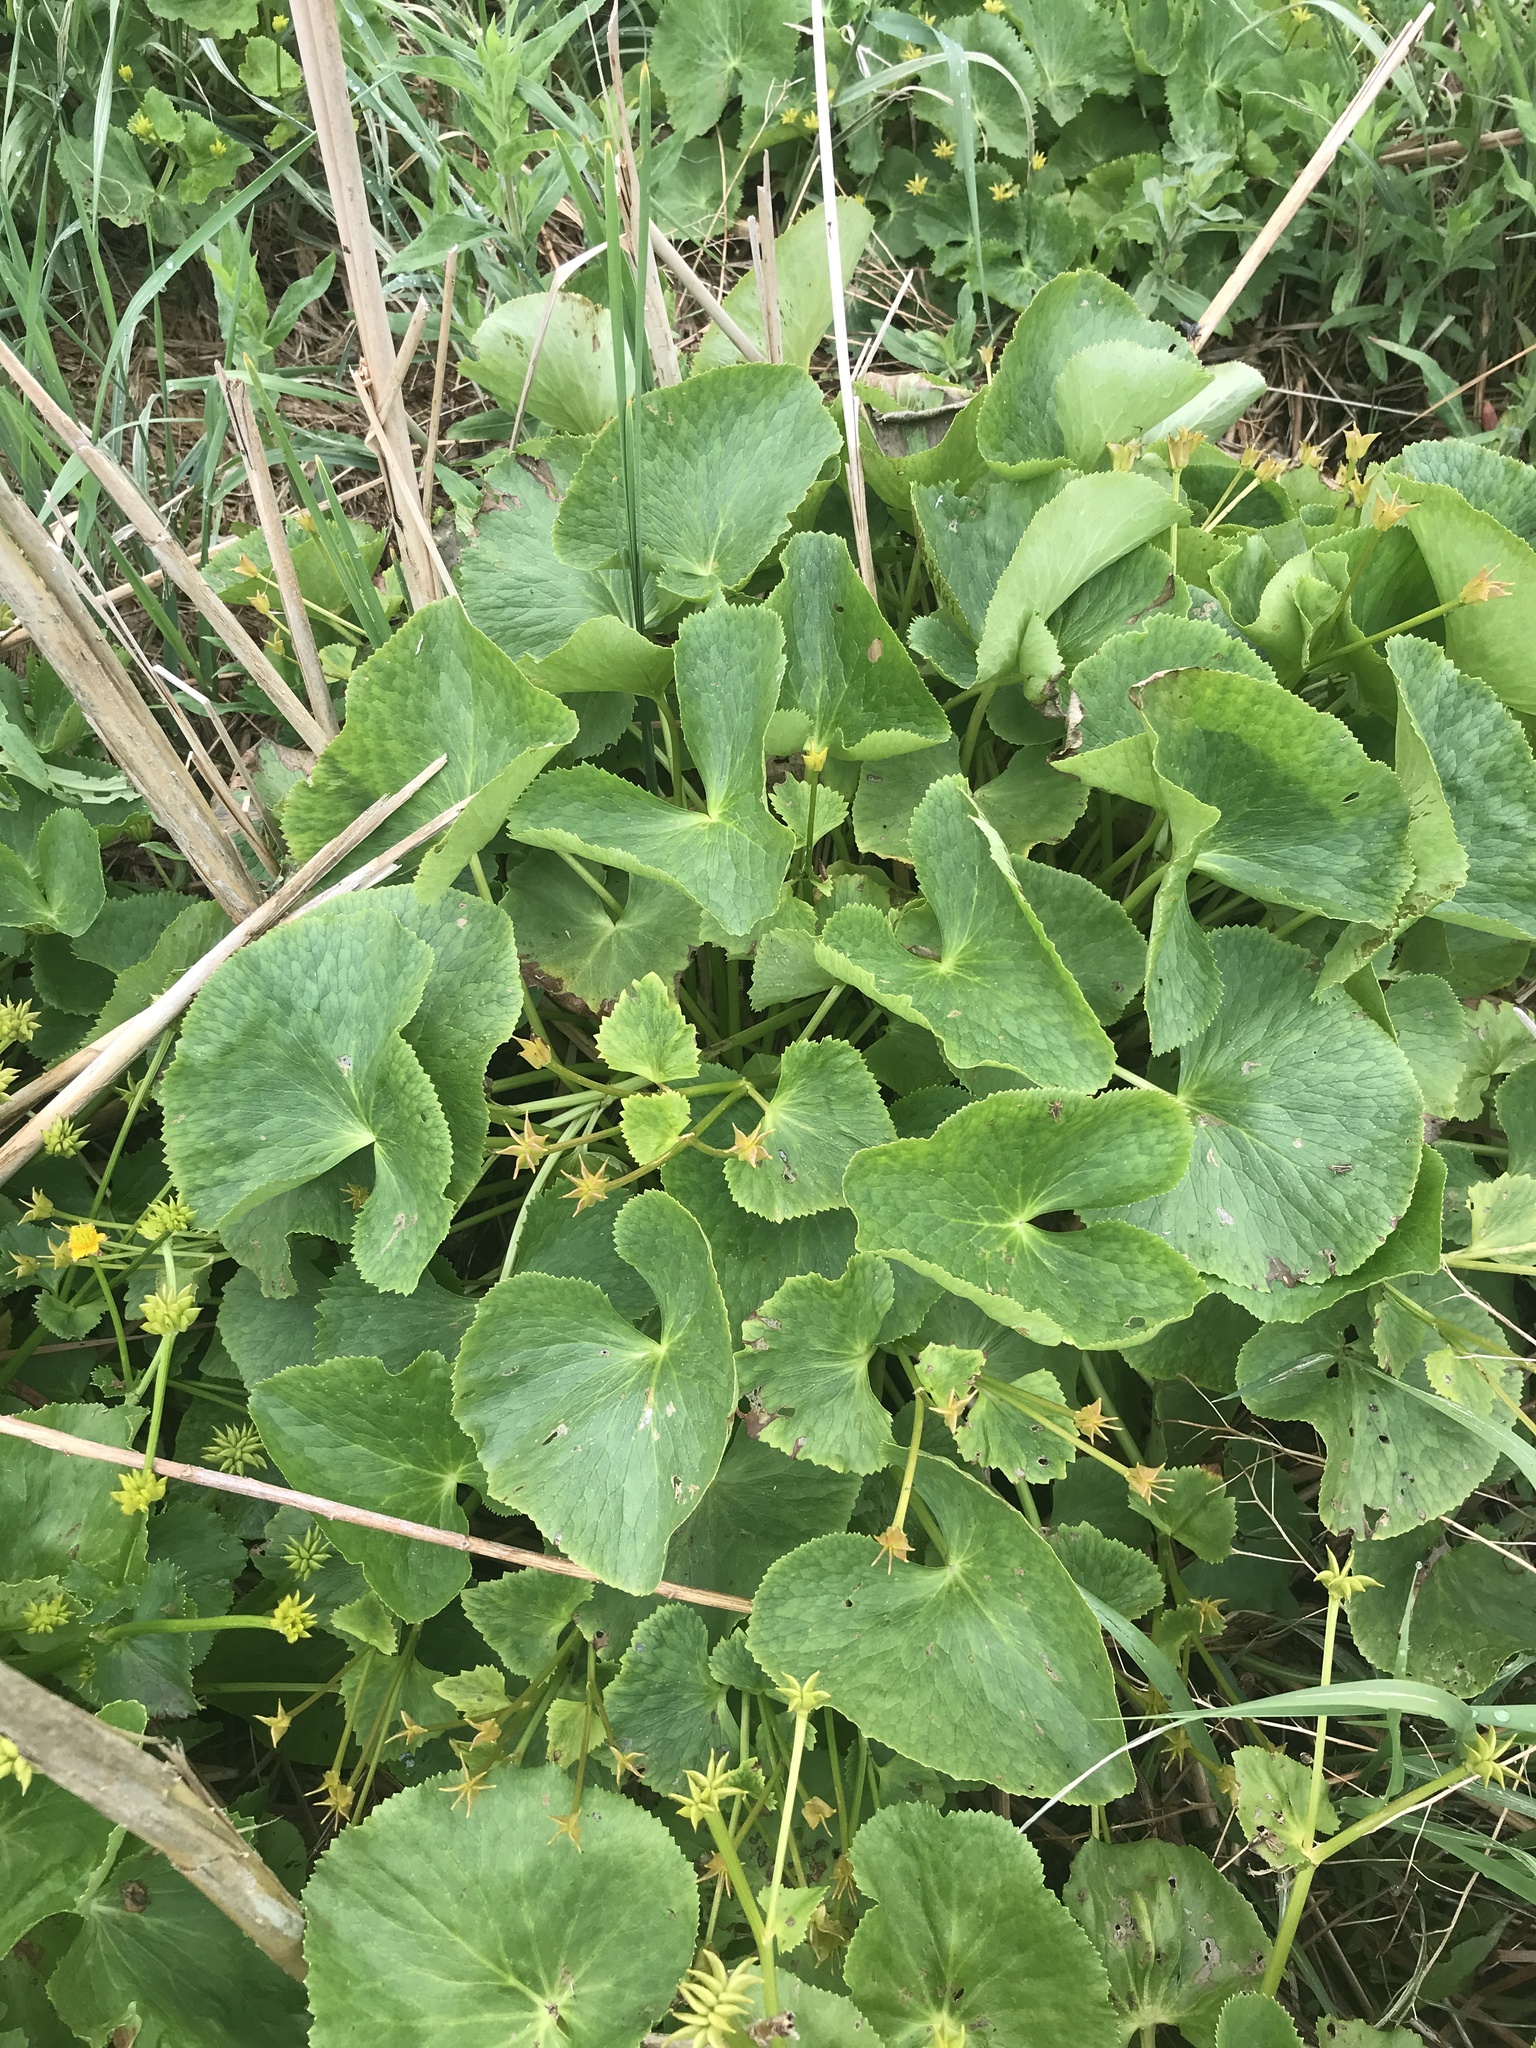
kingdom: Plantae
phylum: Tracheophyta
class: Magnoliopsida
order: Ranunculales
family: Ranunculaceae
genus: Caltha
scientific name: Caltha palustris
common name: Marsh marigold
